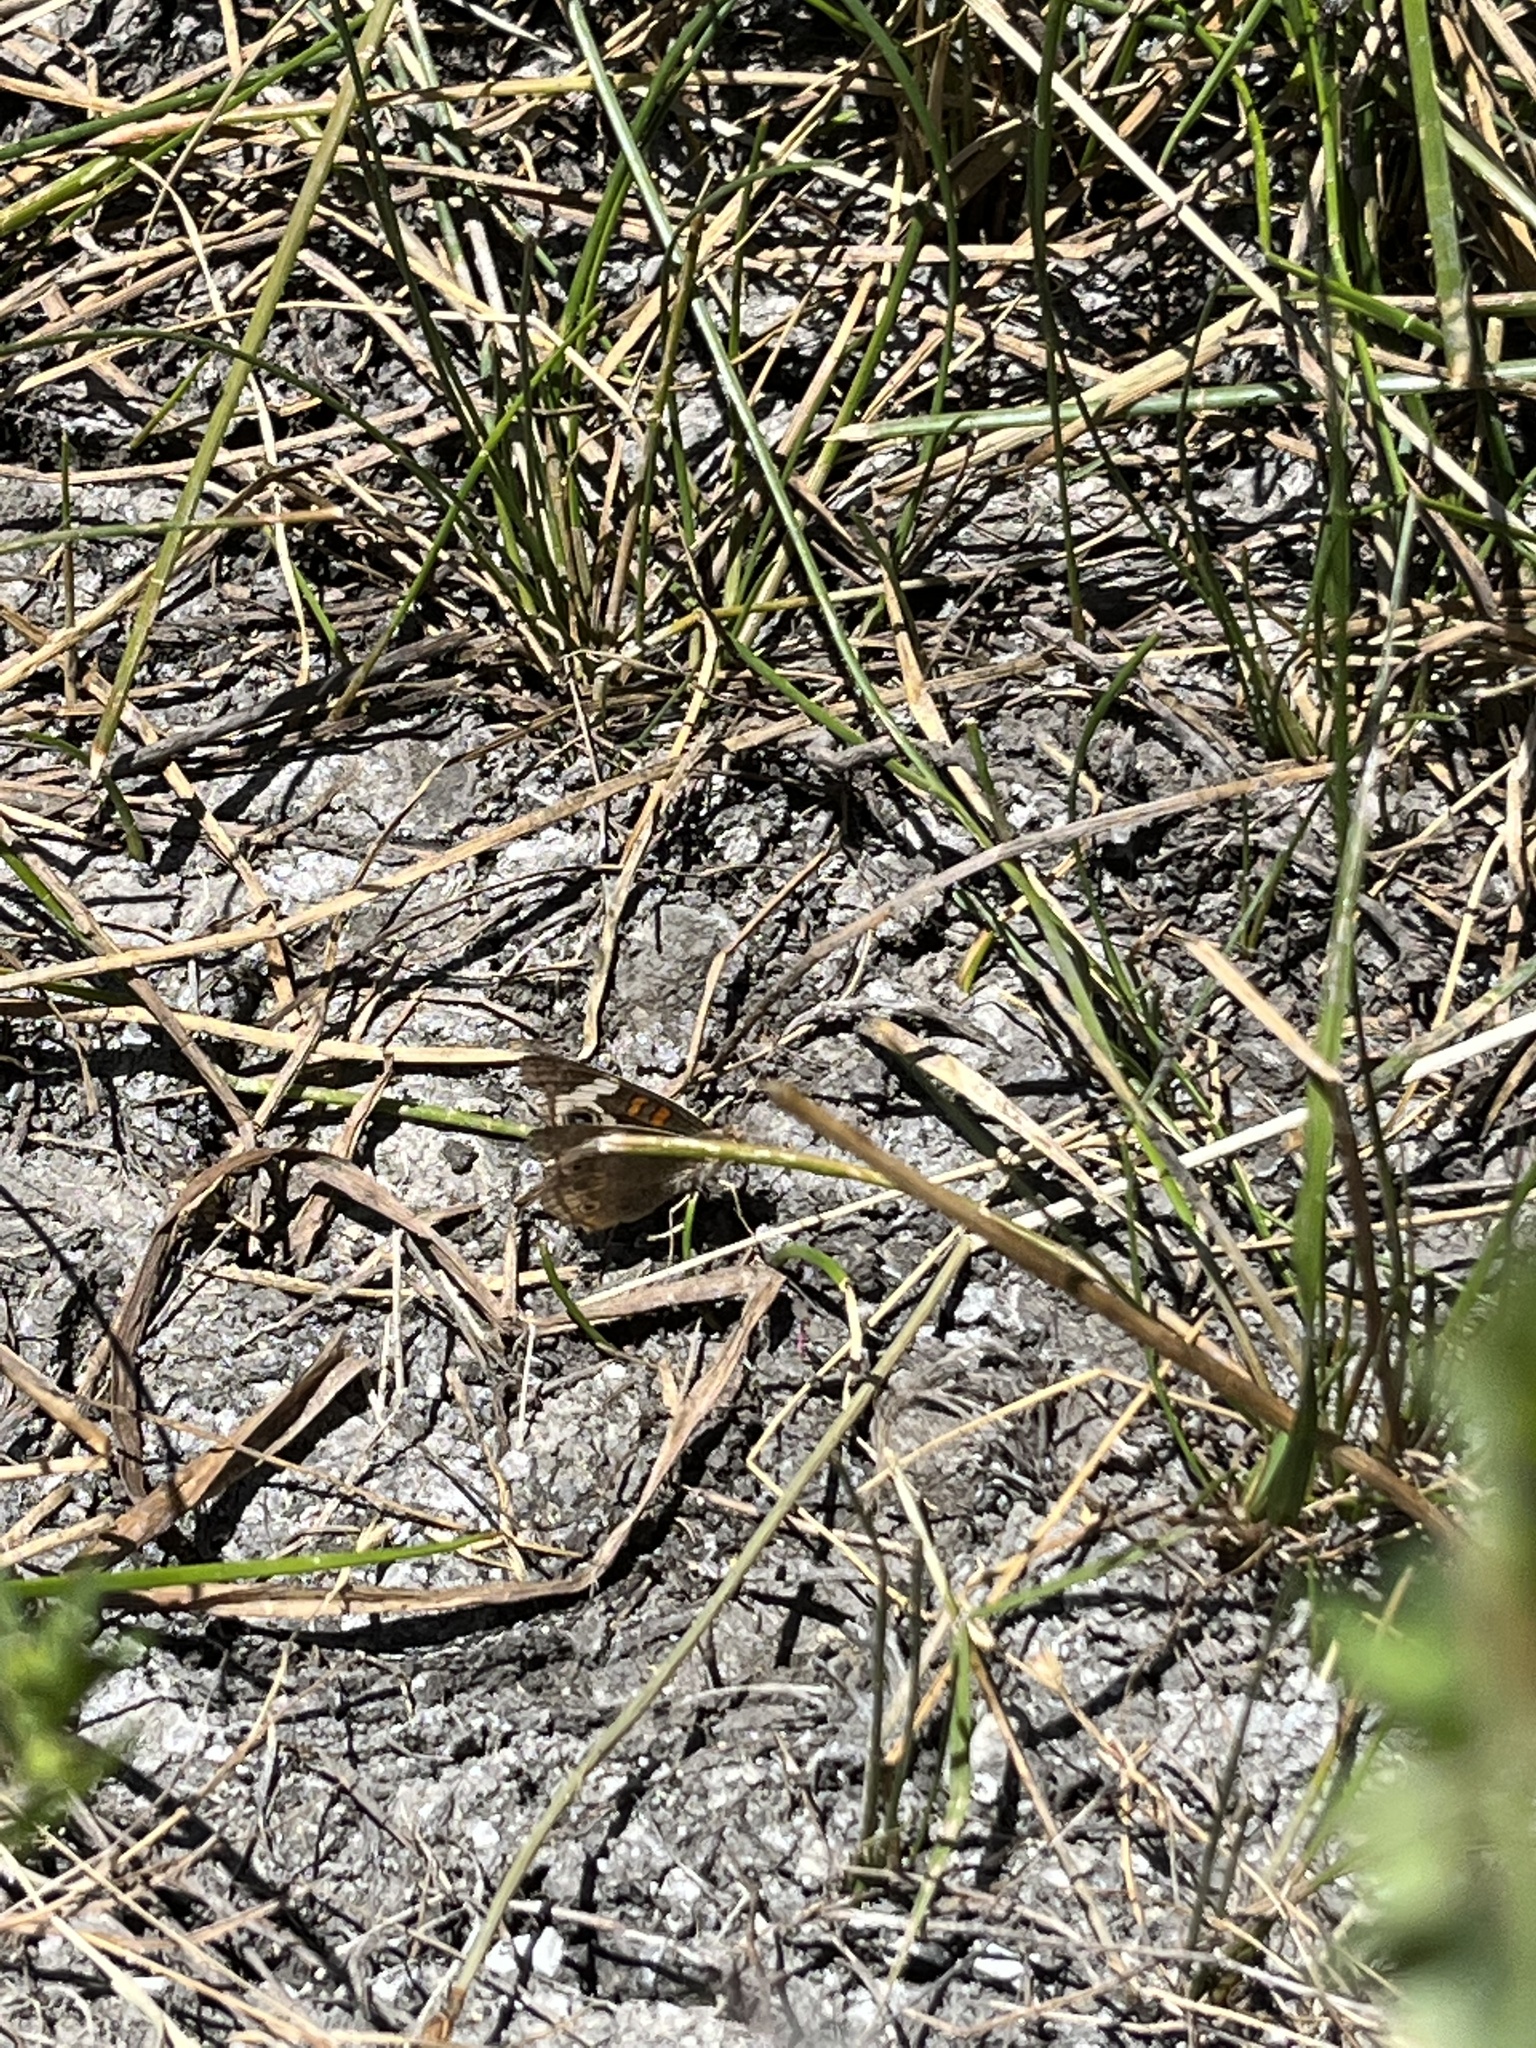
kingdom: Animalia
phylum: Arthropoda
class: Insecta
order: Lepidoptera
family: Nymphalidae
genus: Junonia
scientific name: Junonia grisea
